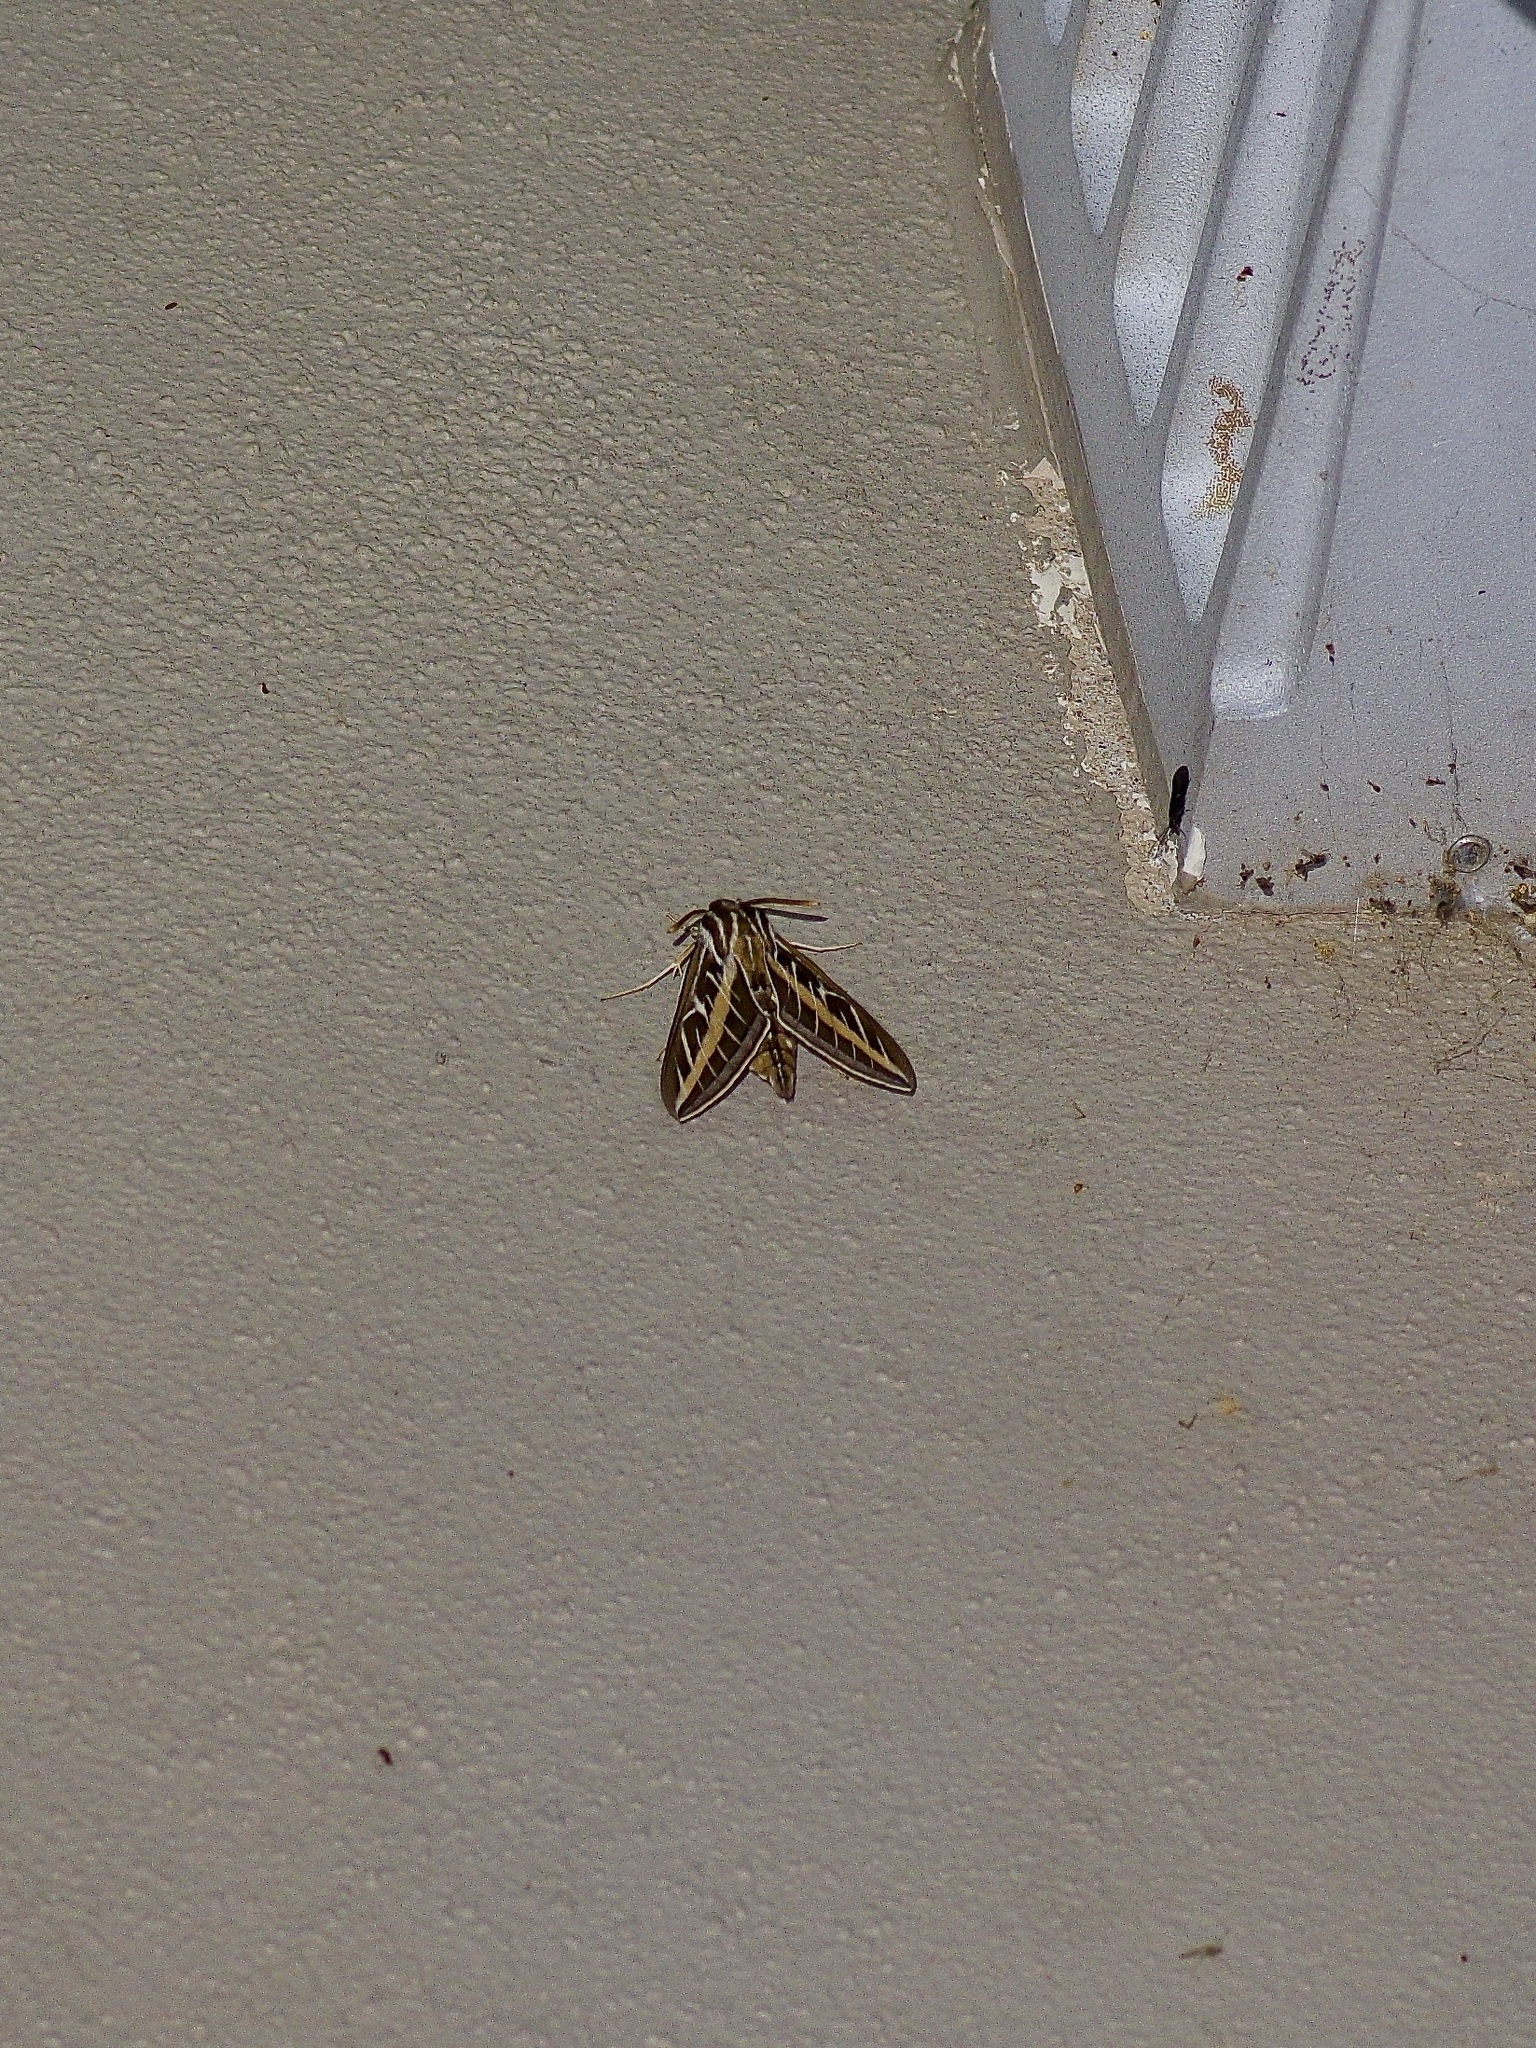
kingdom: Animalia
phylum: Arthropoda
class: Insecta
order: Lepidoptera
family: Sphingidae
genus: Hyles
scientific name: Hyles lineata
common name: White-lined sphinx
